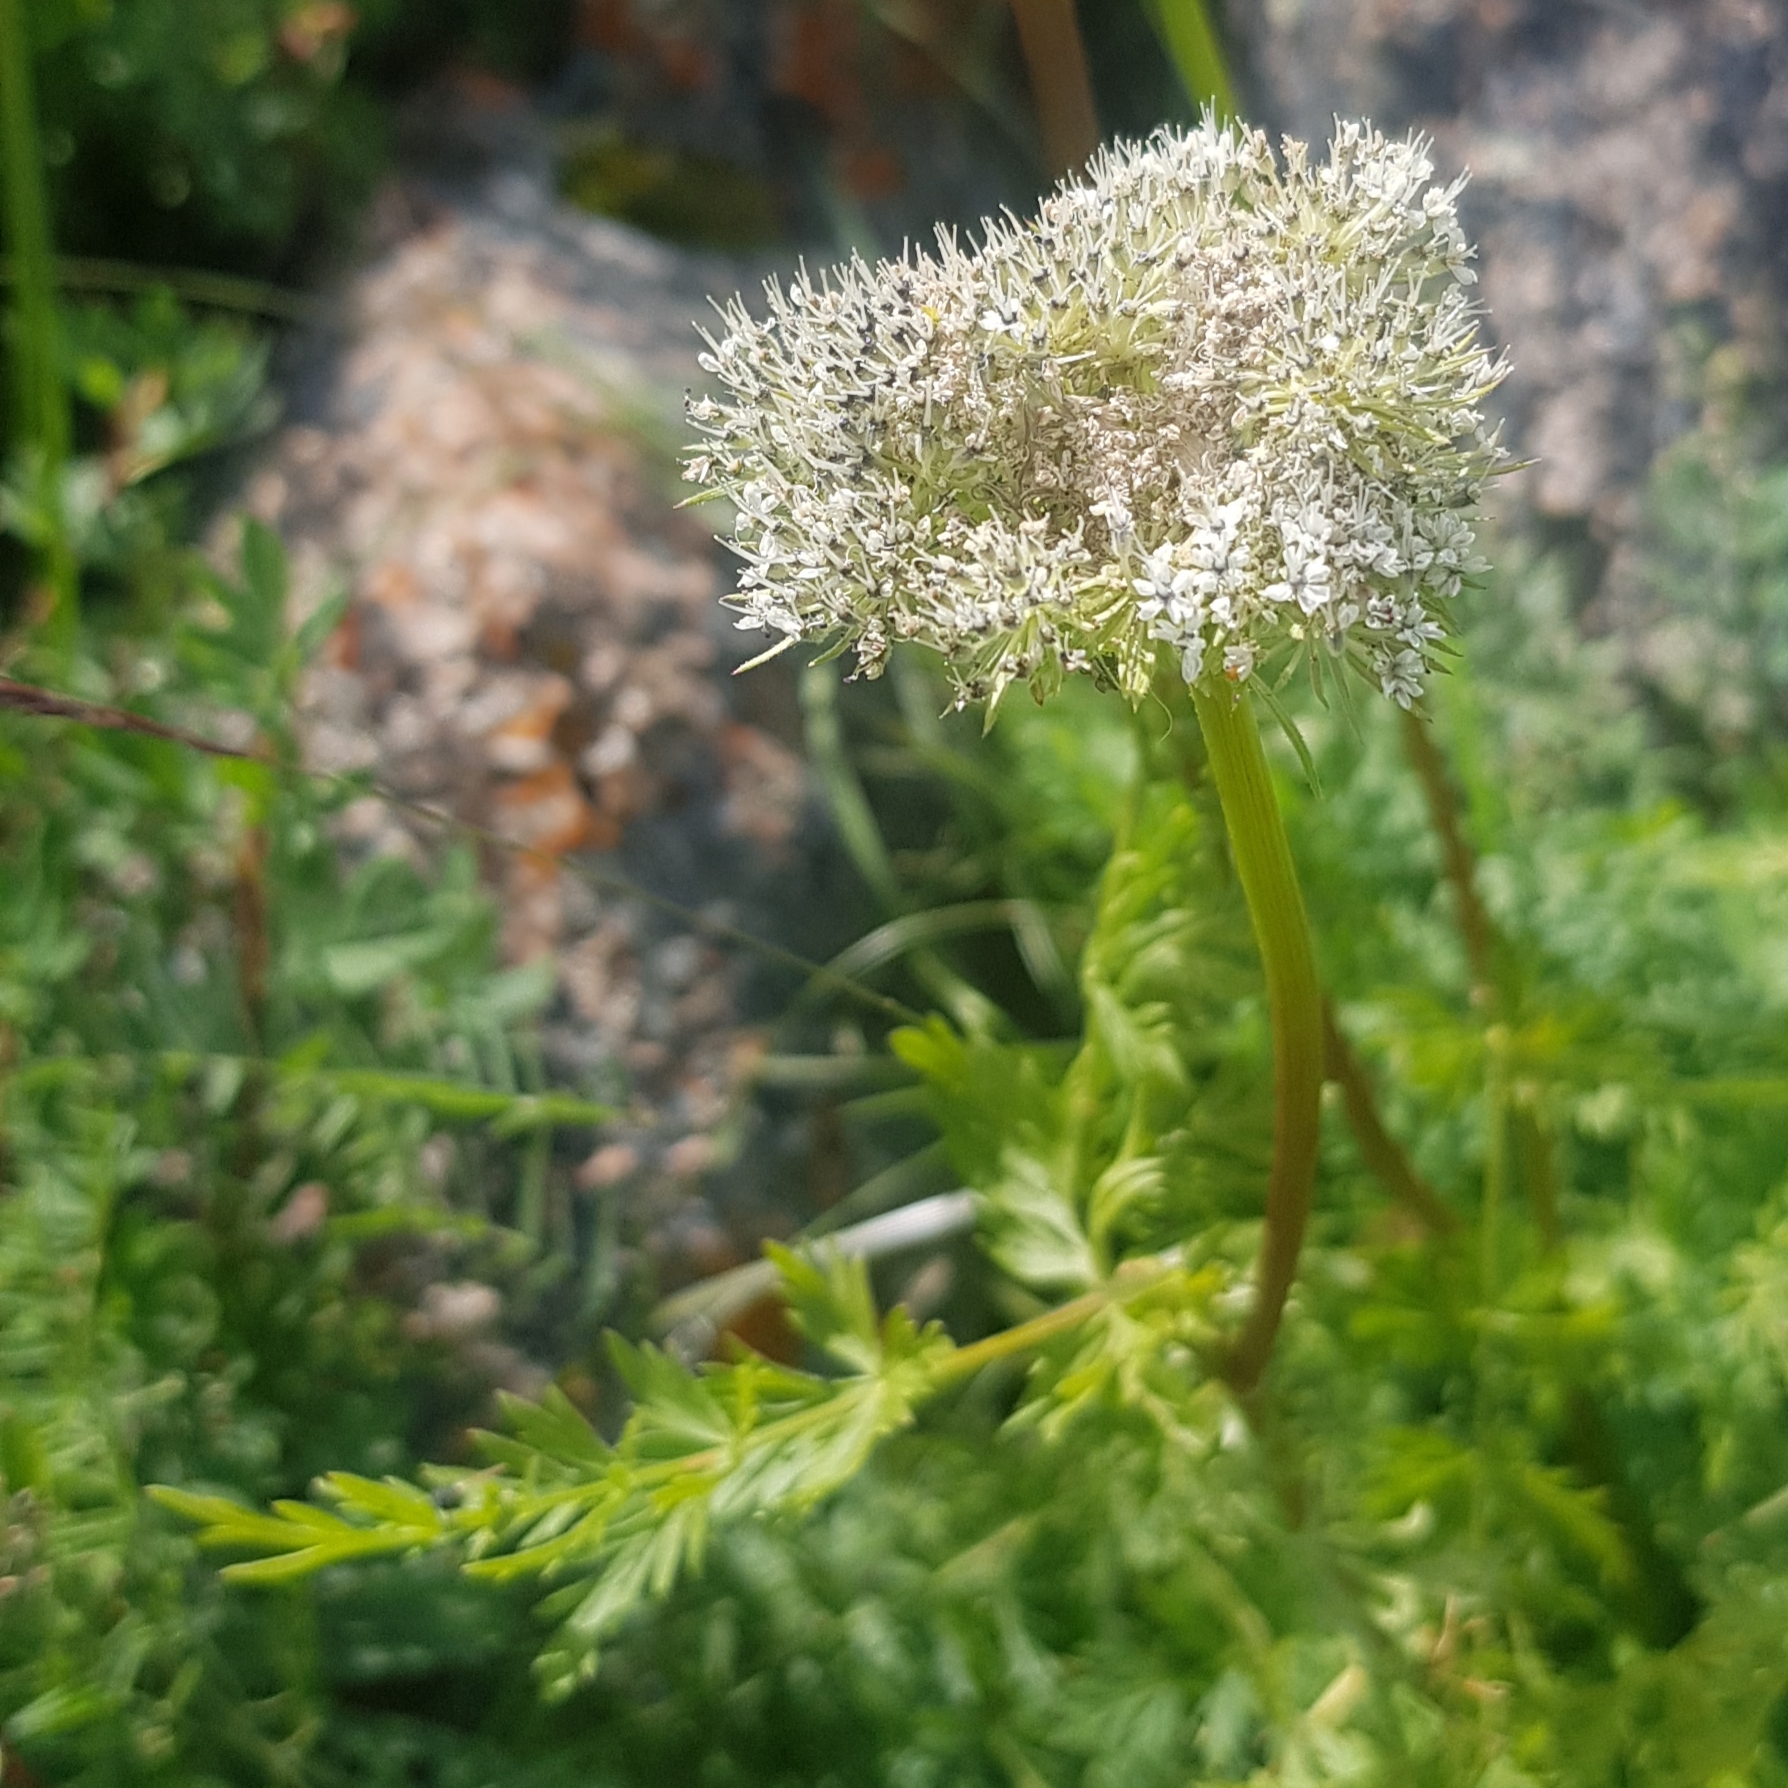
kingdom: Plantae
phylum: Tracheophyta
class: Magnoliopsida
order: Apiales
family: Apiaceae
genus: Seseli
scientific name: Seseli seseloides
